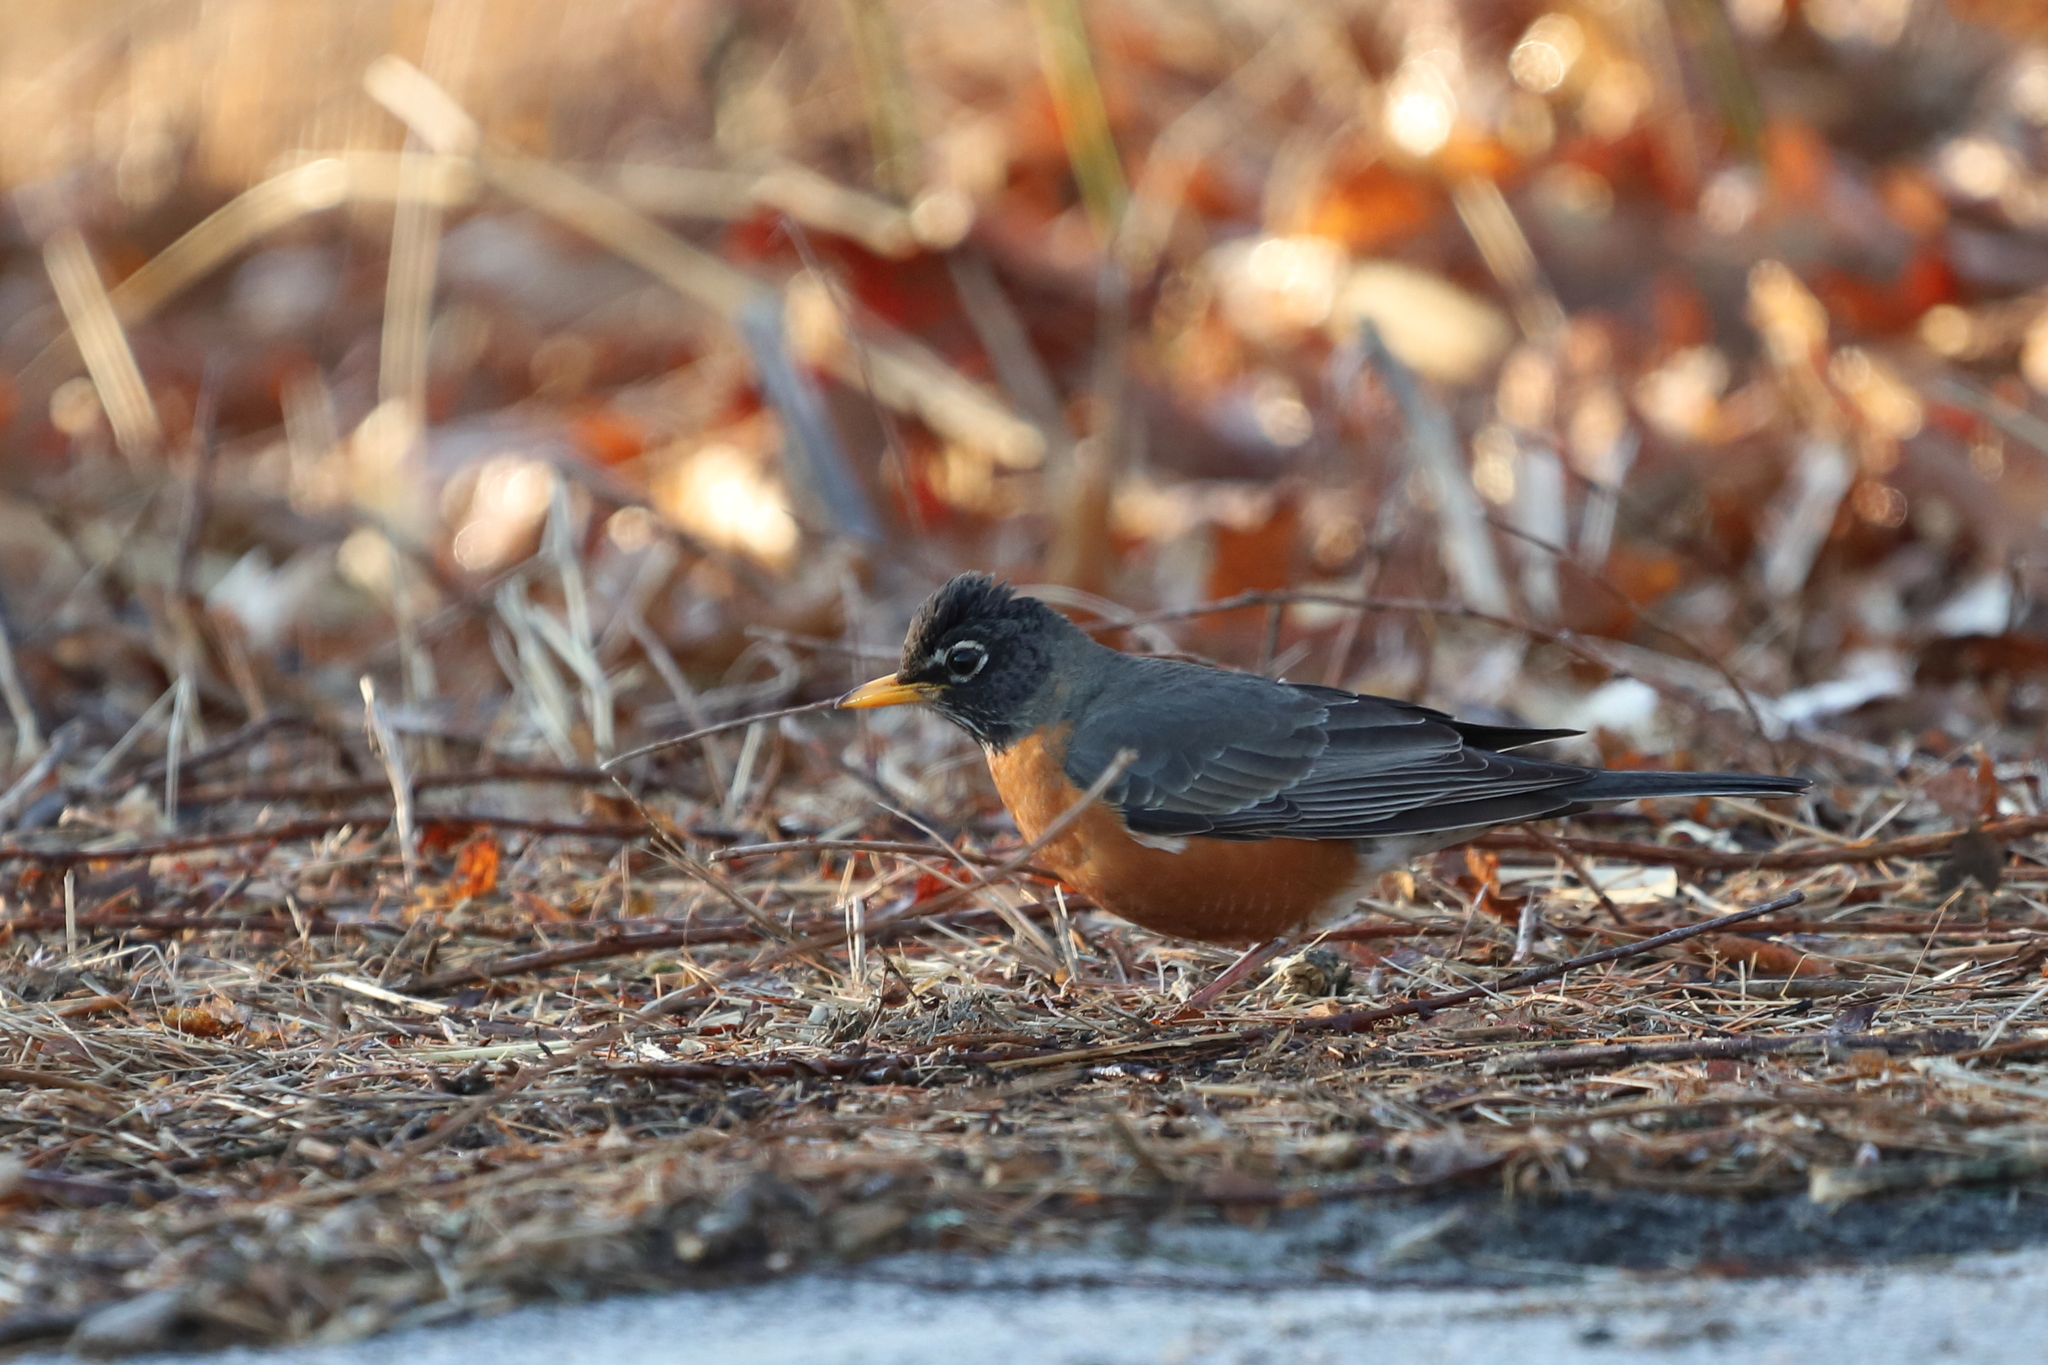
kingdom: Animalia
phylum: Chordata
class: Aves
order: Passeriformes
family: Turdidae
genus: Turdus
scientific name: Turdus migratorius
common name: American robin
